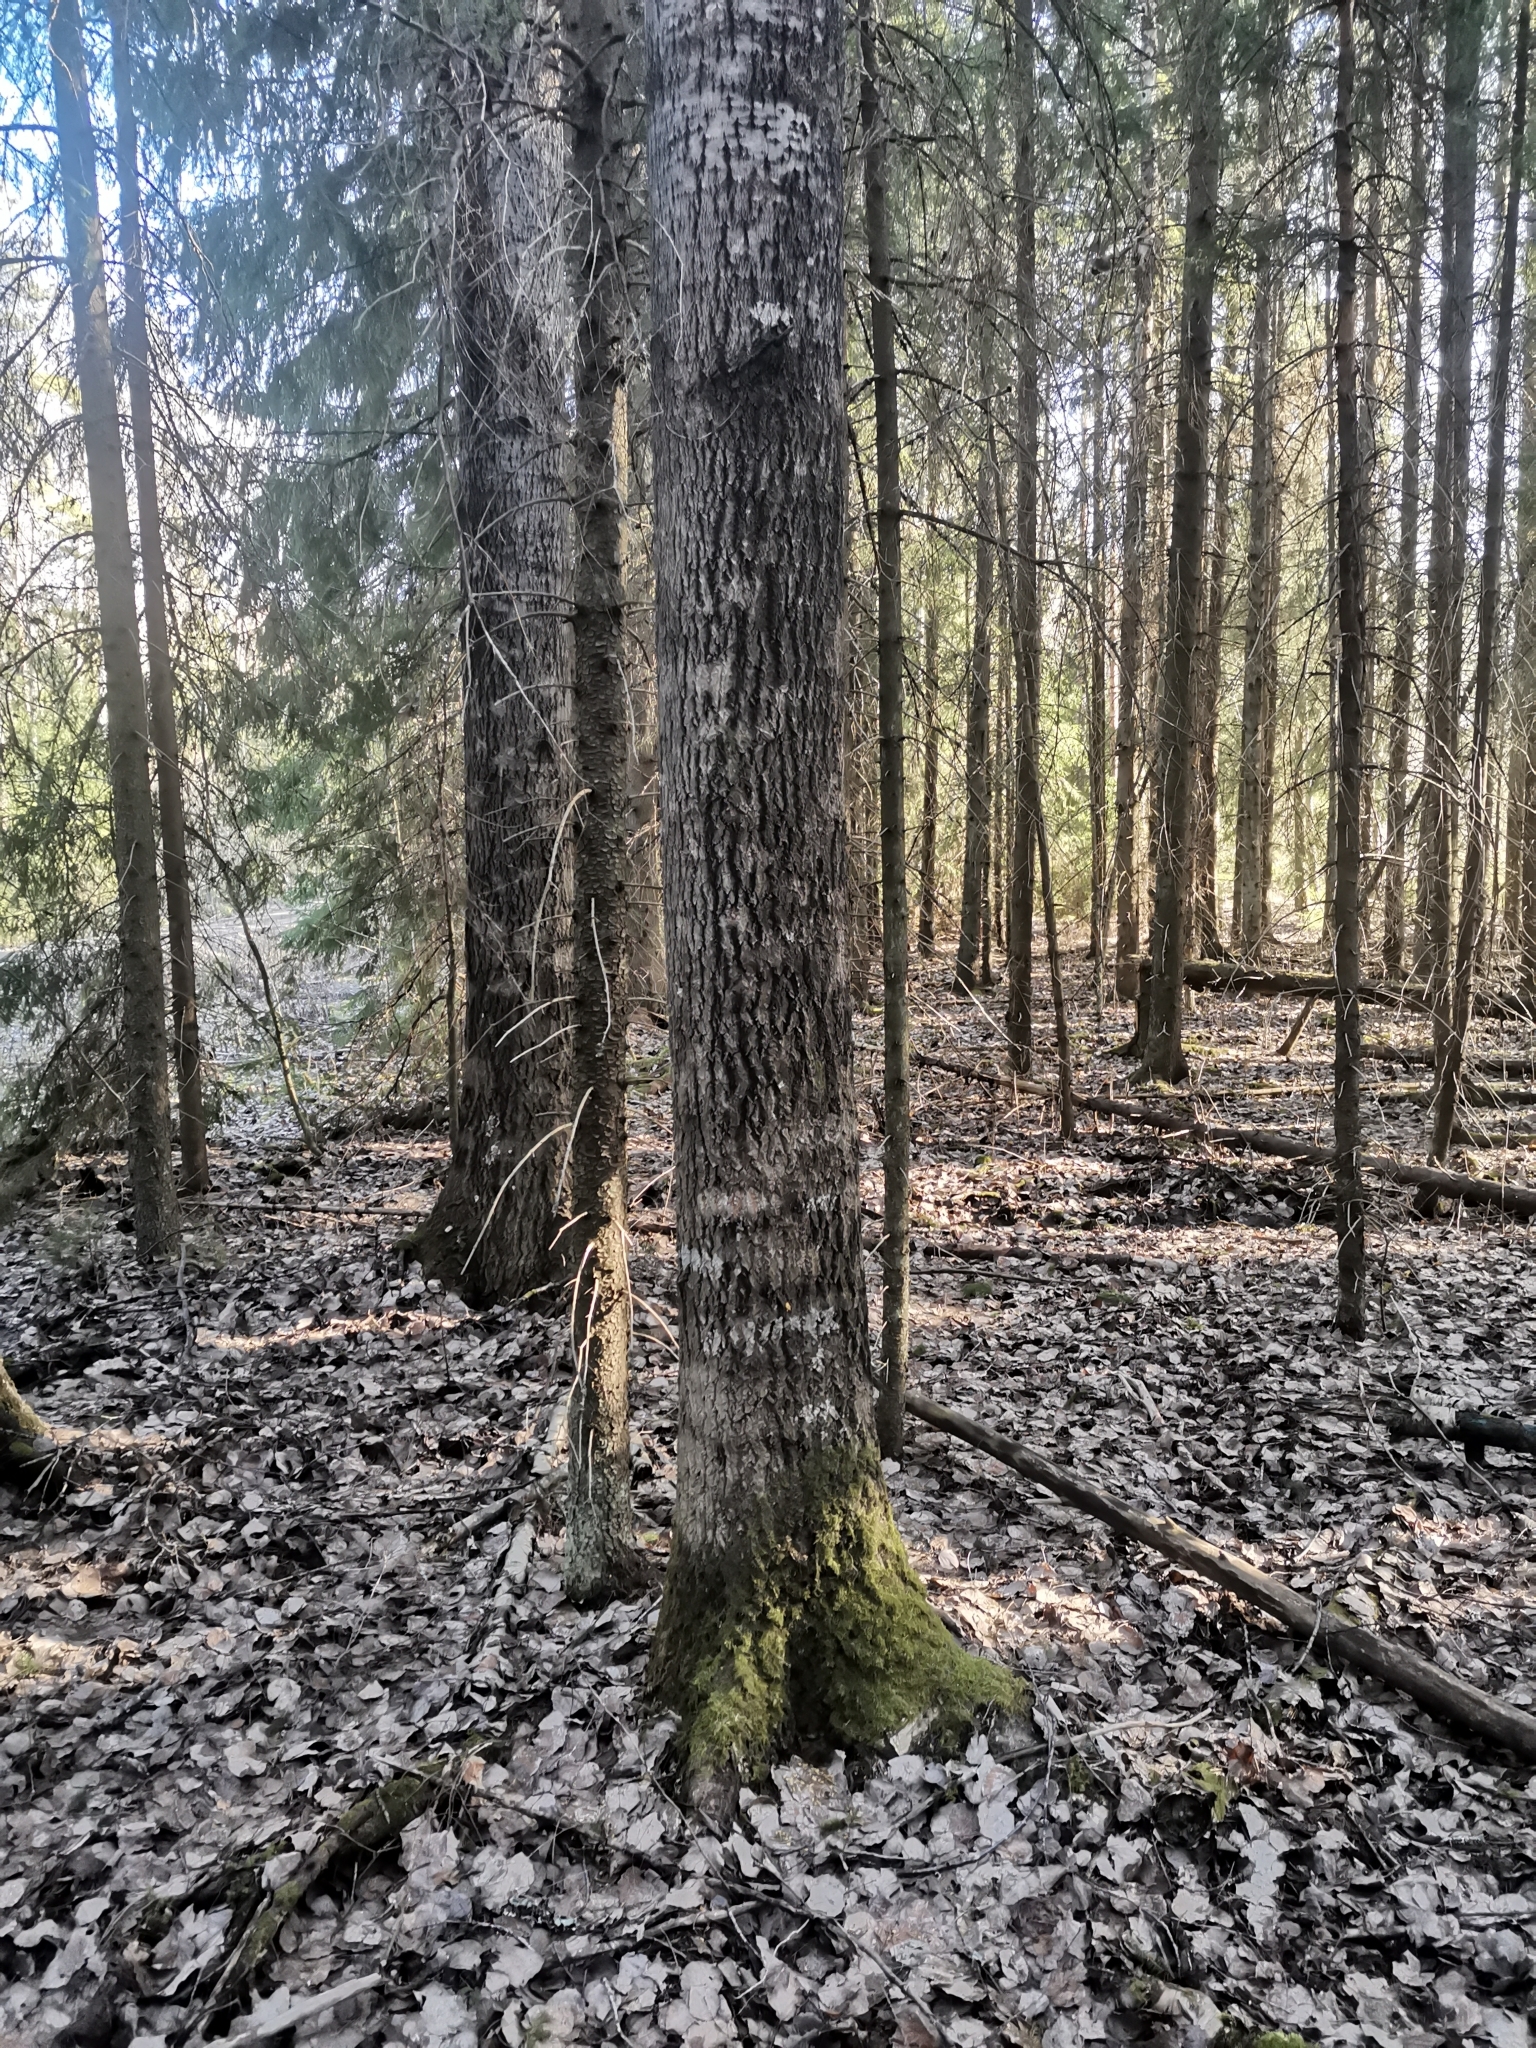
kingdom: Animalia
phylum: Chordata
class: Mammalia
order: Rodentia
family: Sciuridae
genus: Pteromys
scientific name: Pteromys volans
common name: Siberian flying squirrel
